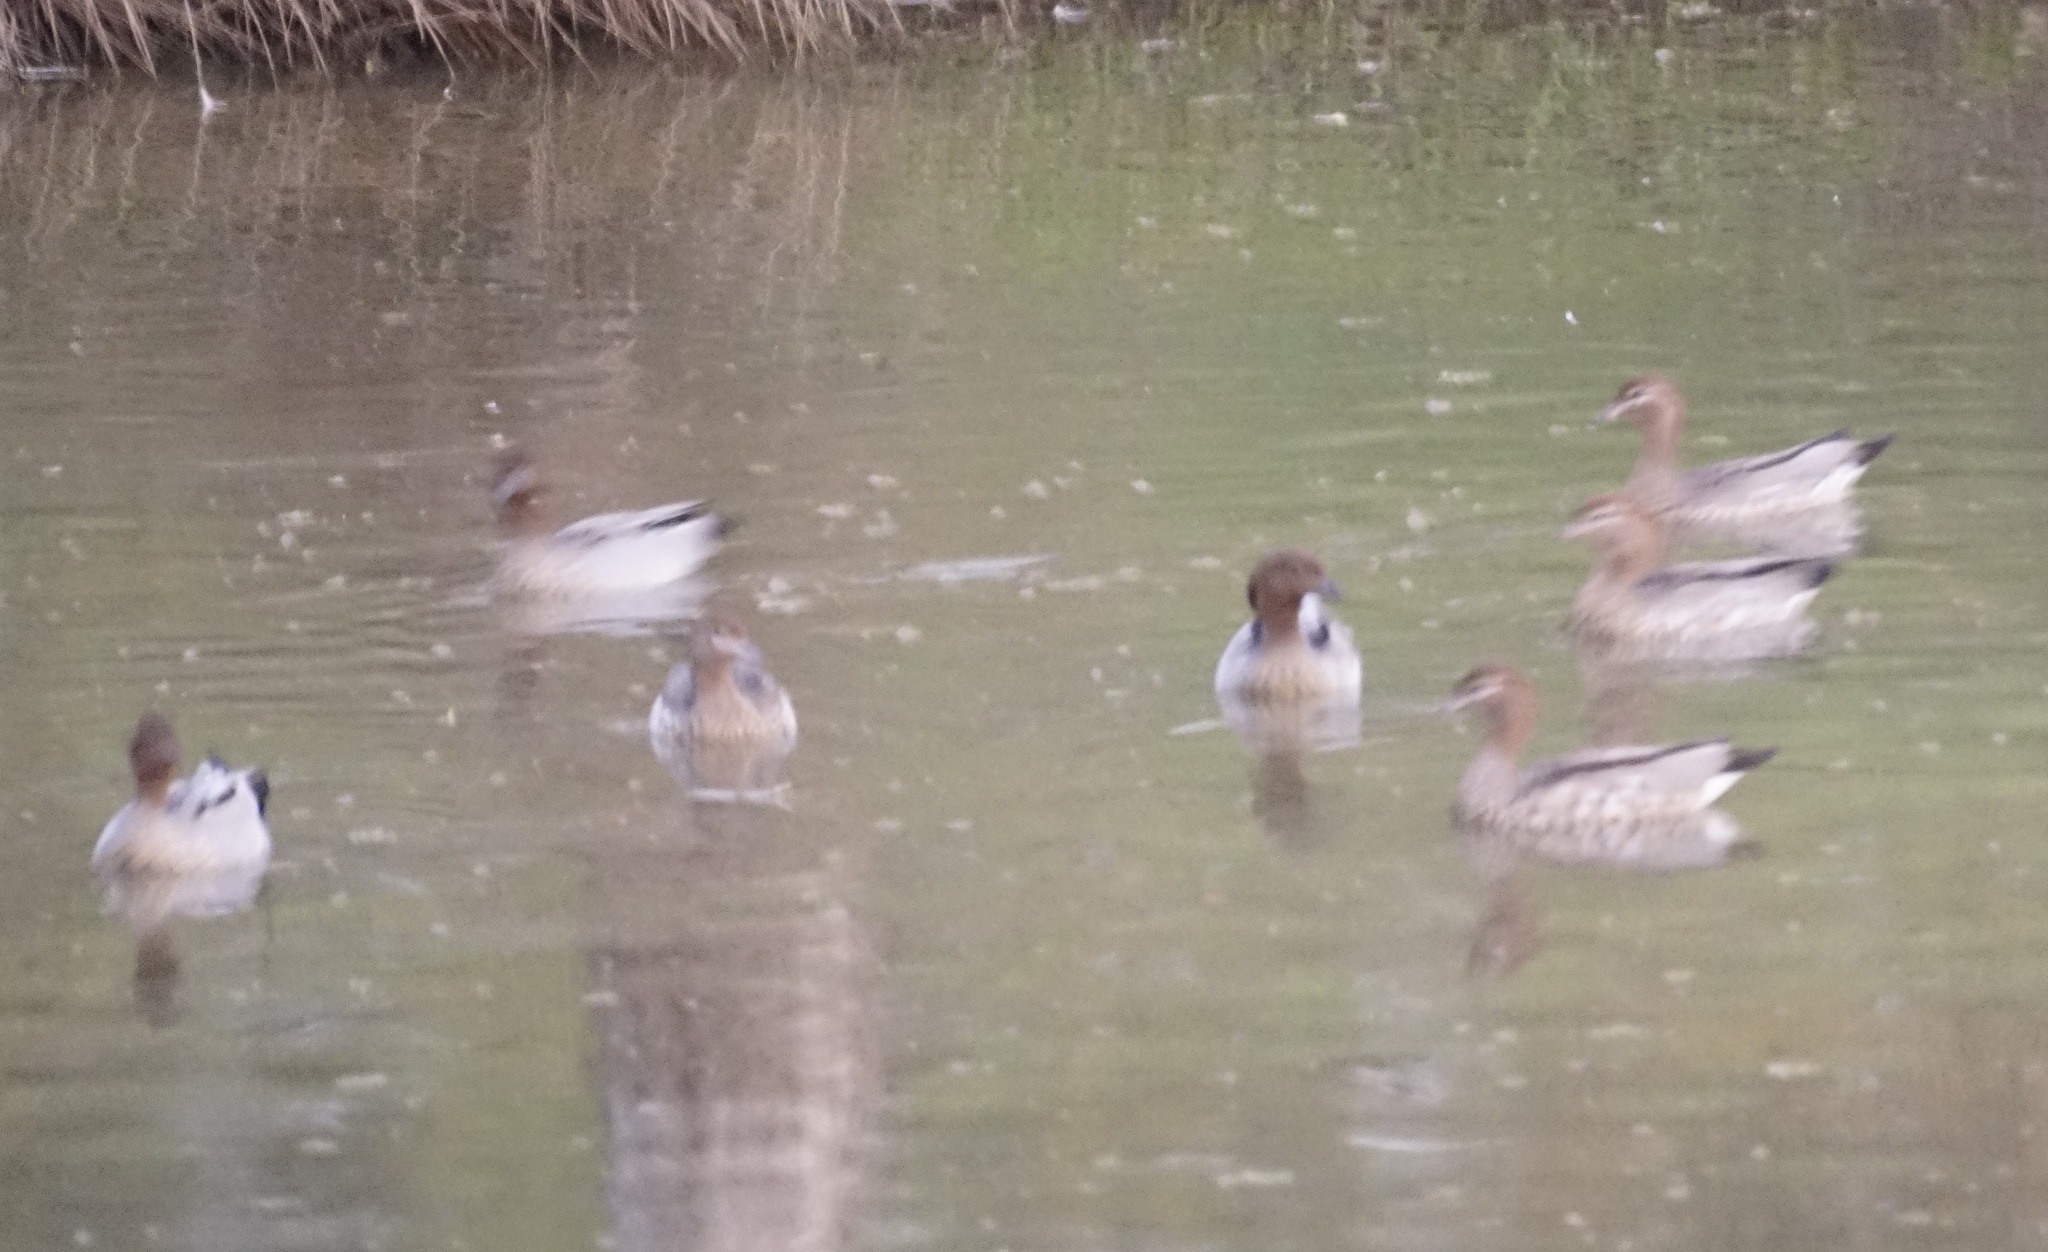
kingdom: Animalia
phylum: Chordata
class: Aves
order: Anseriformes
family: Anatidae
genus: Chenonetta
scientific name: Chenonetta jubata
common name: Maned duck
